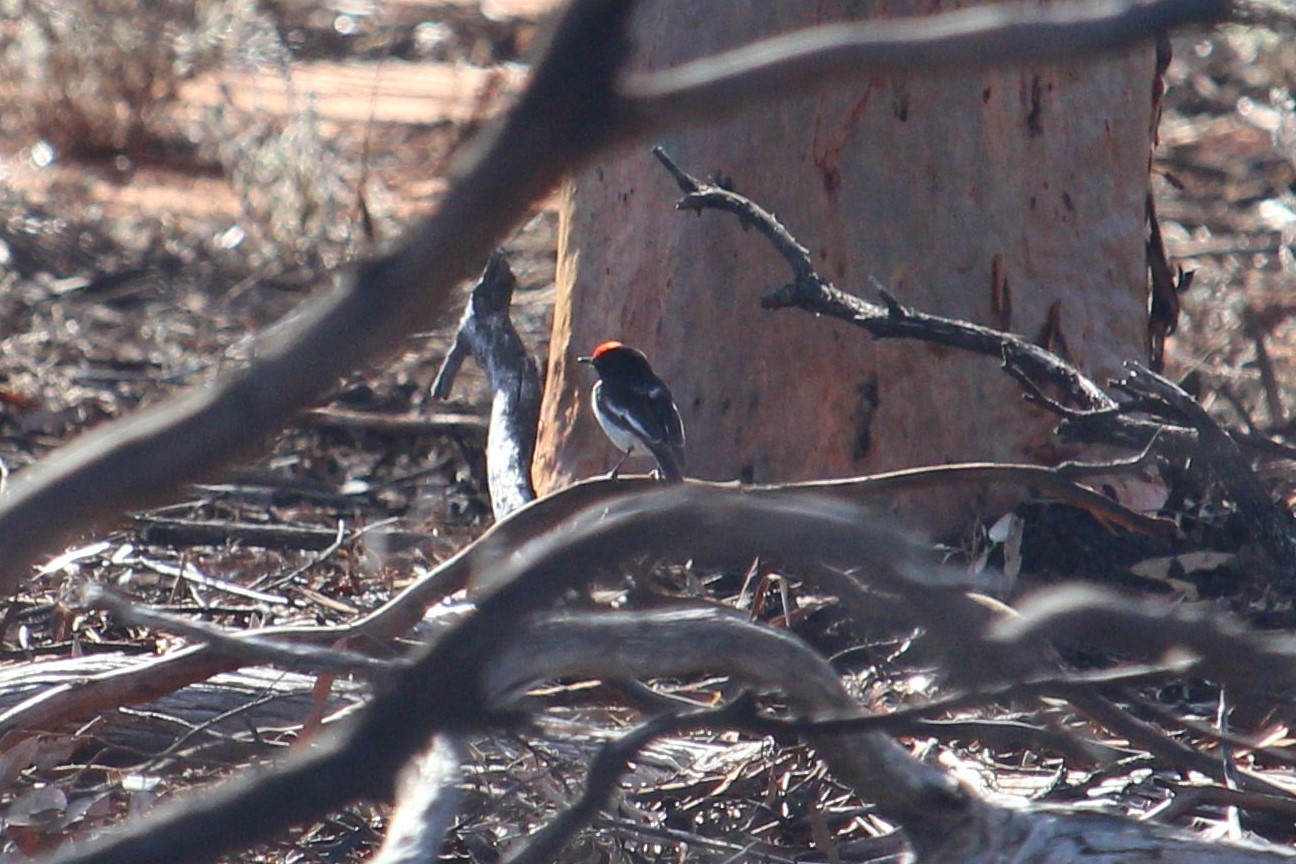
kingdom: Animalia
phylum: Chordata
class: Aves
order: Passeriformes
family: Petroicidae
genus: Petroica
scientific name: Petroica goodenovii
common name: Red-capped robin
